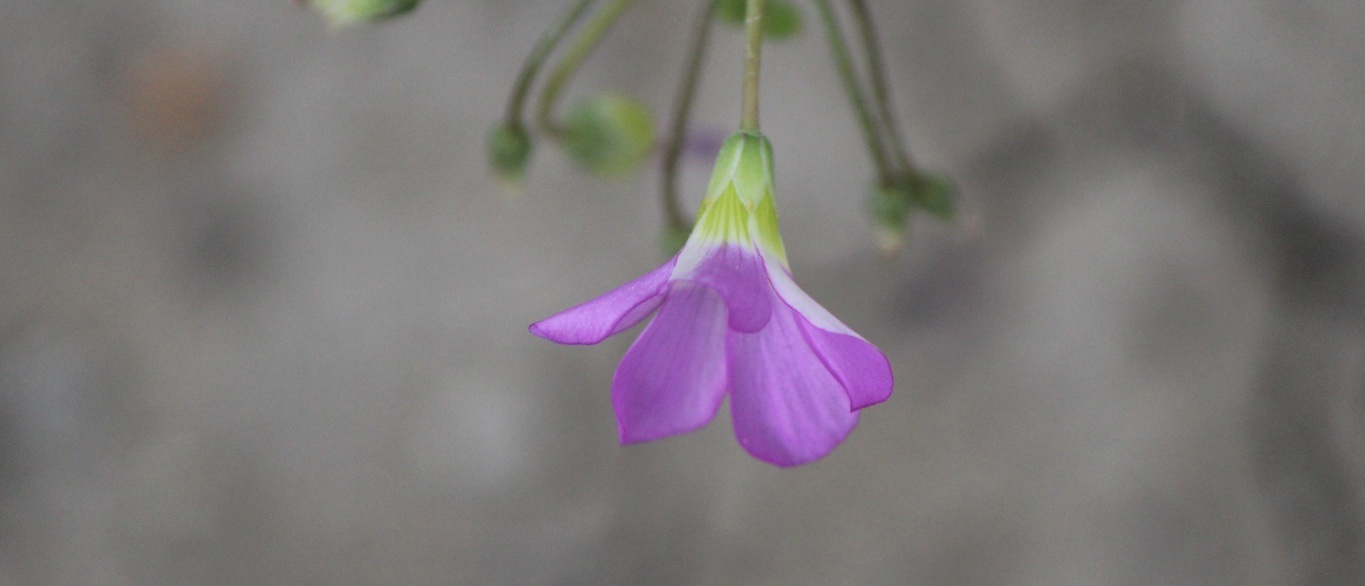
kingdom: Plantae
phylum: Tracheophyta
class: Magnoliopsida
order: Oxalidales
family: Oxalidaceae
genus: Oxalis
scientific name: Oxalis decaphylla
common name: Ten-leaved pink-sorrel
